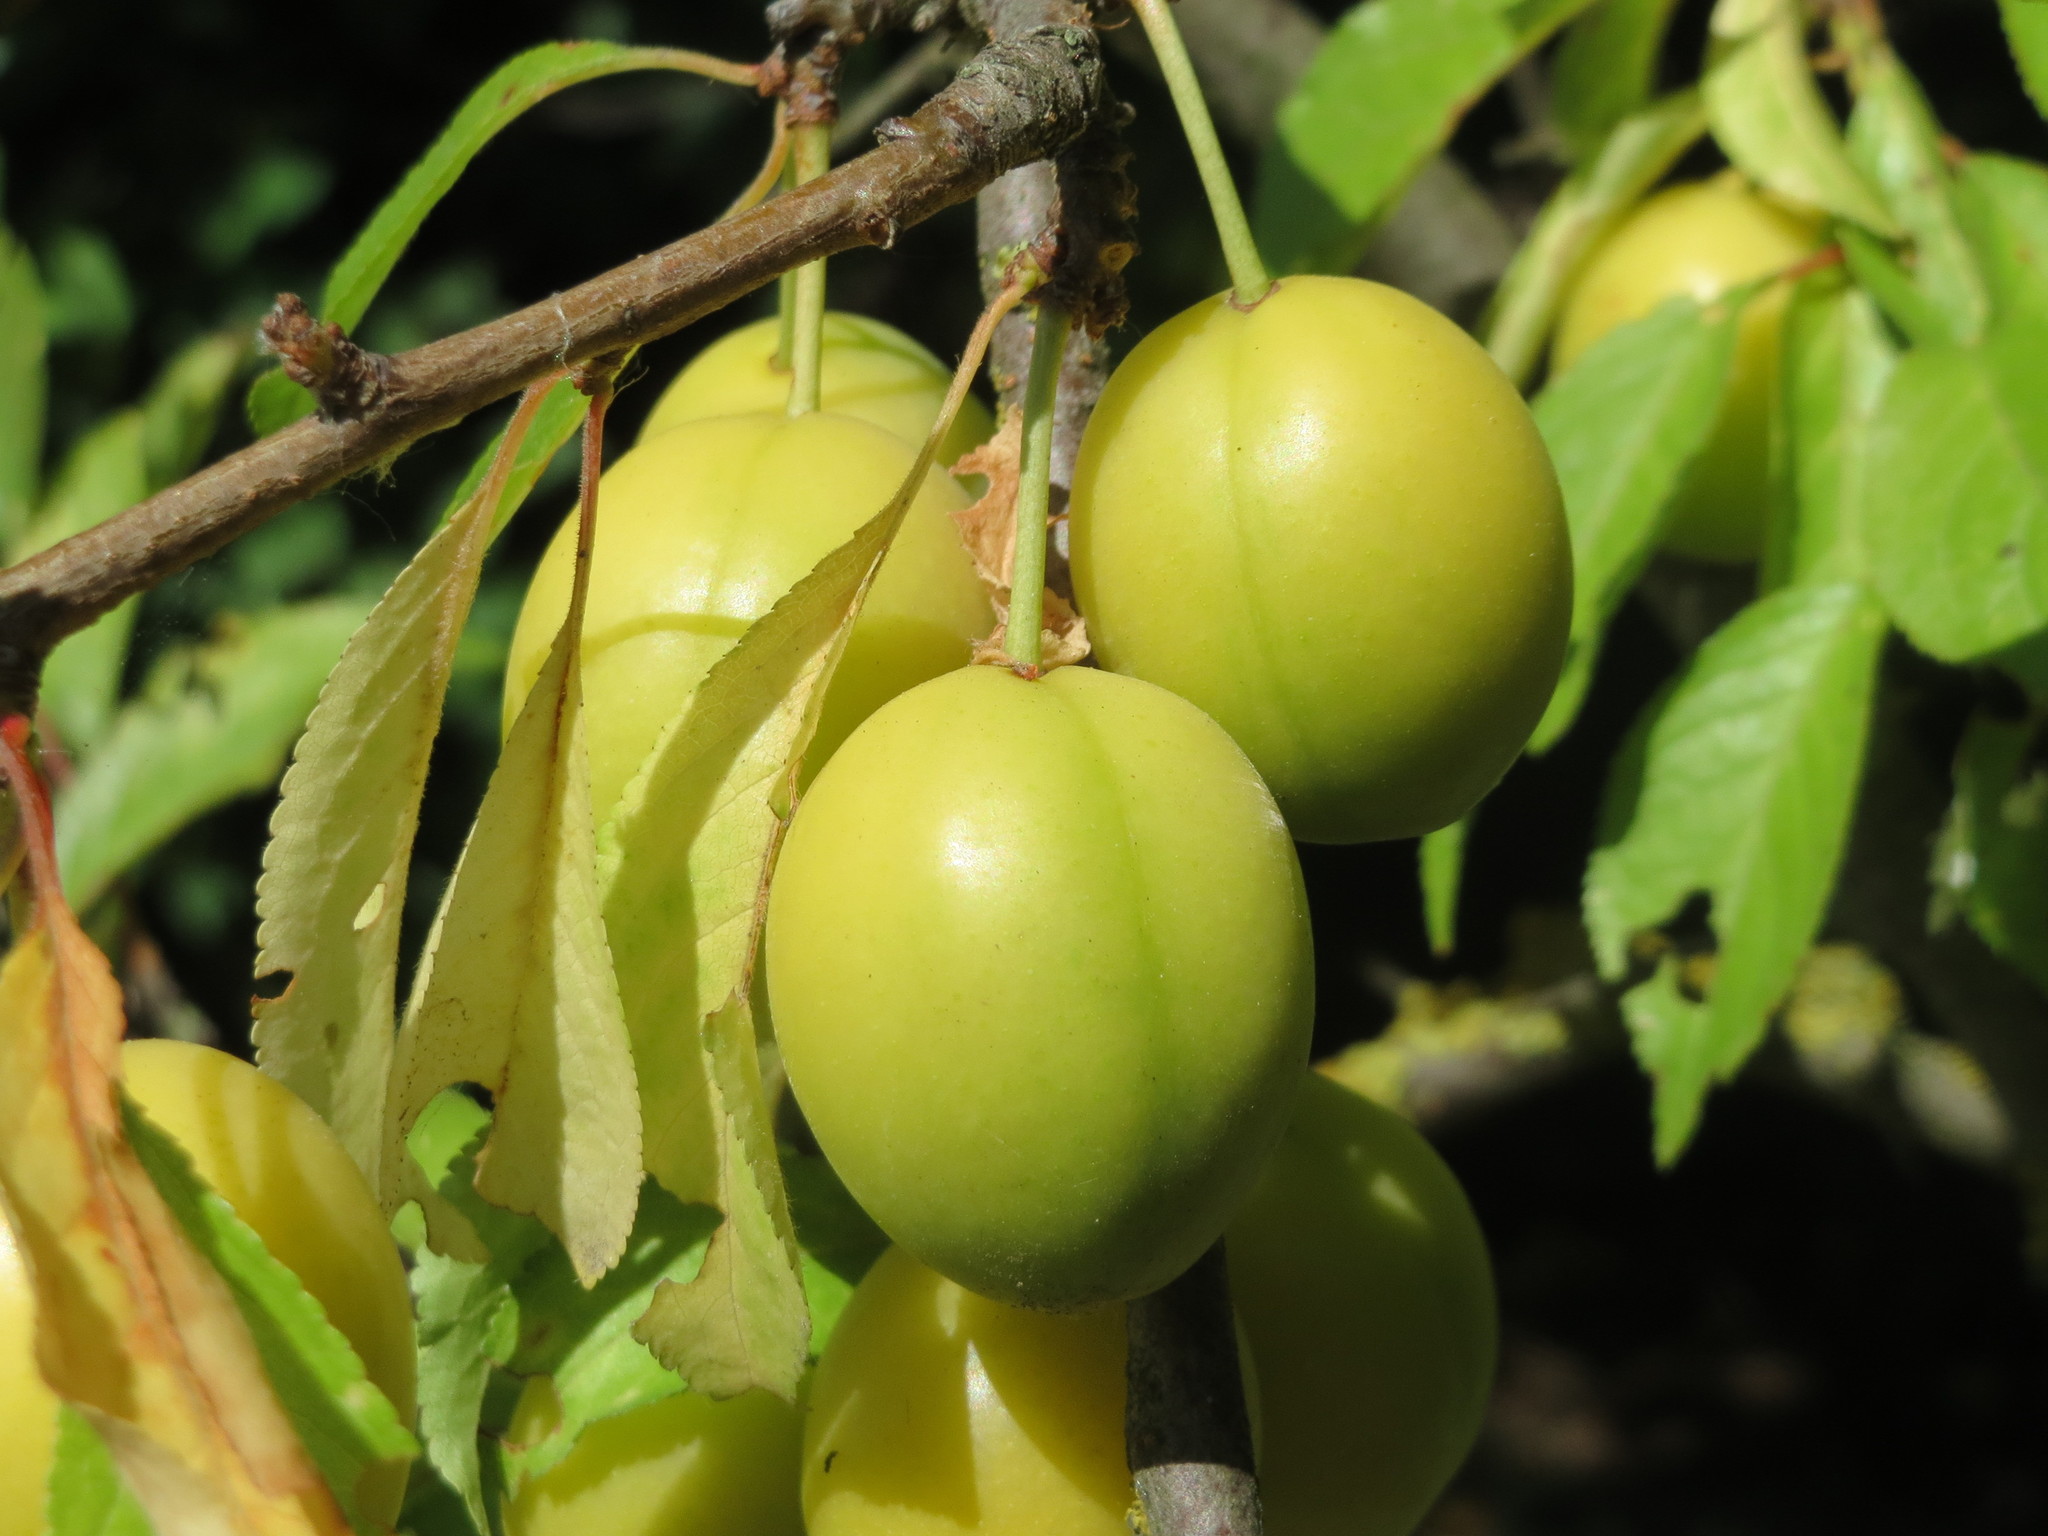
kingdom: Plantae
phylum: Tracheophyta
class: Magnoliopsida
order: Rosales
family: Rosaceae
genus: Prunus
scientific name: Prunus cerasifera
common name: Cherry plum
